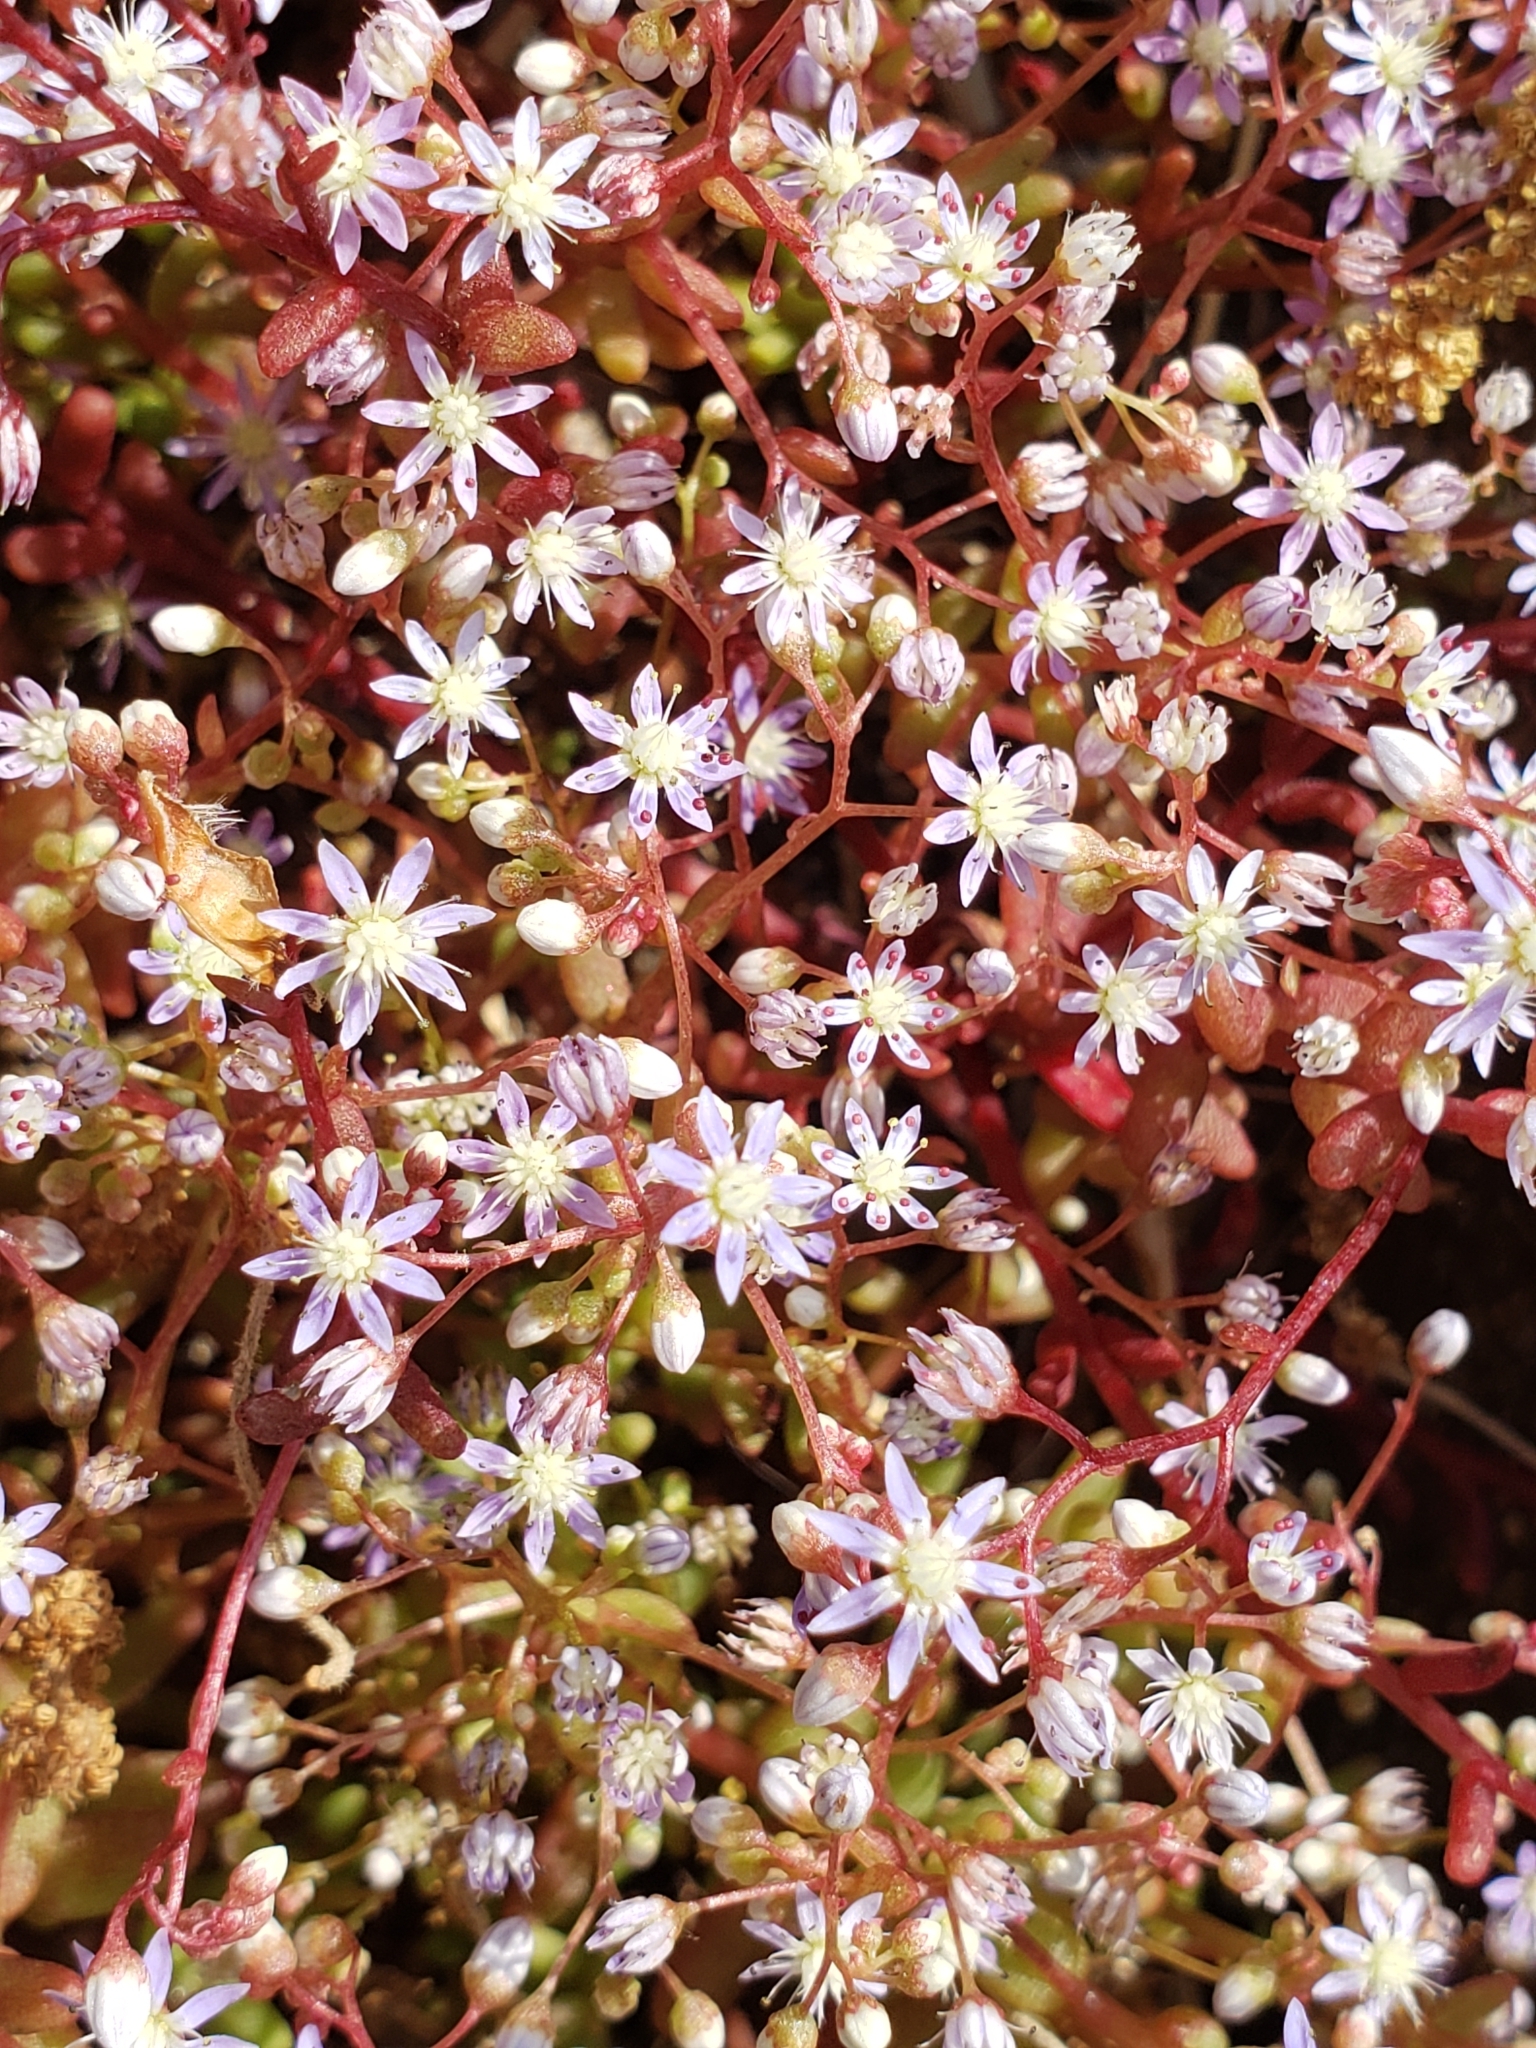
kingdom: Plantae
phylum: Tracheophyta
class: Magnoliopsida
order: Saxifragales
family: Crassulaceae
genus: Sedum
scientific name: Sedum caeruleum
